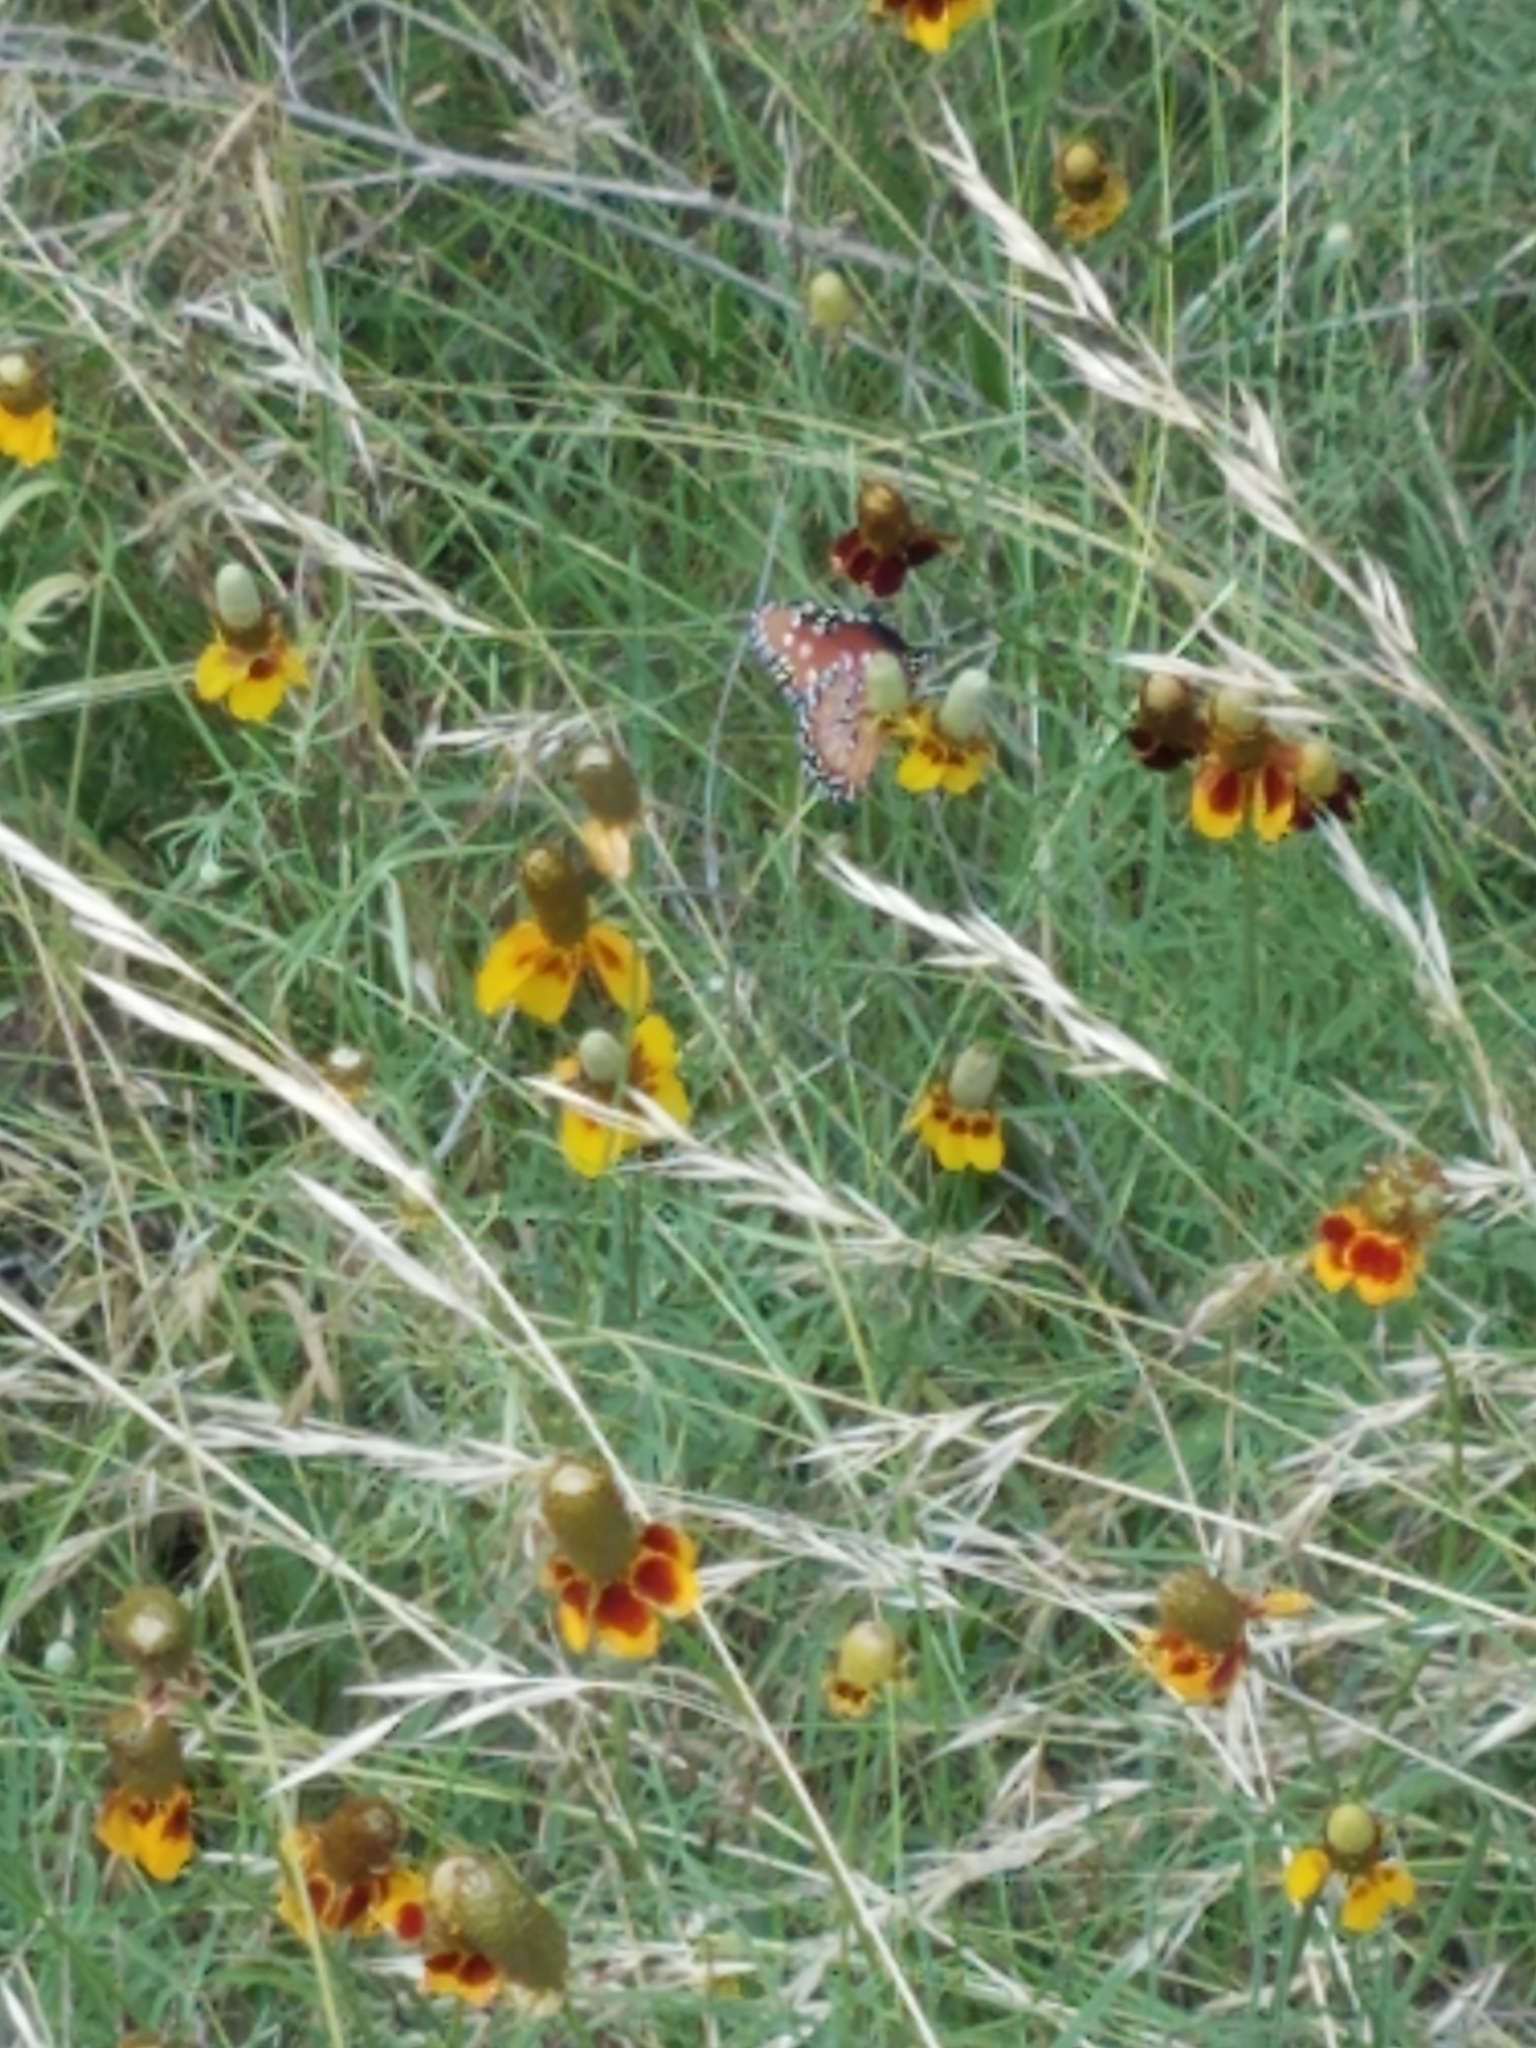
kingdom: Animalia
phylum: Arthropoda
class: Insecta
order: Lepidoptera
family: Nymphalidae
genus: Danaus
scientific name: Danaus gilippus
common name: Queen
